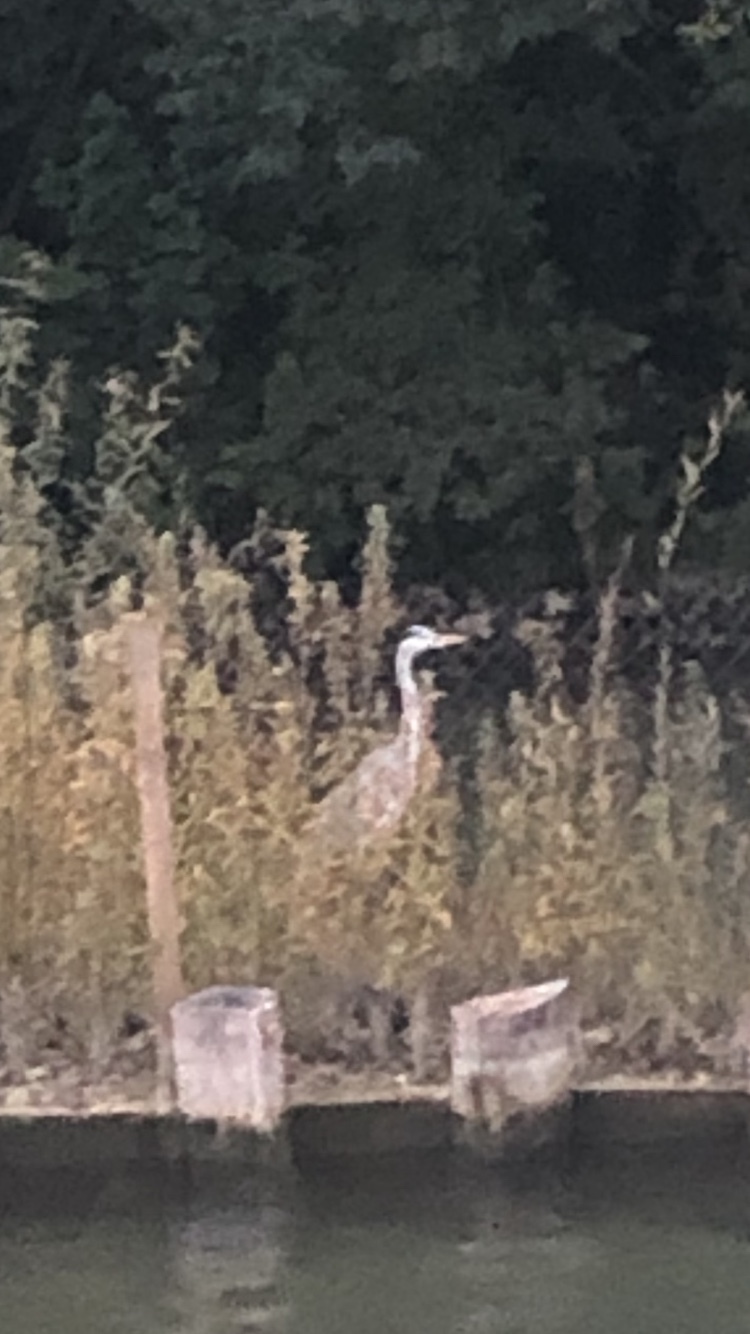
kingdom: Animalia
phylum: Chordata
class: Aves
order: Pelecaniformes
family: Ardeidae
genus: Ardea
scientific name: Ardea cinerea
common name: Grey heron
